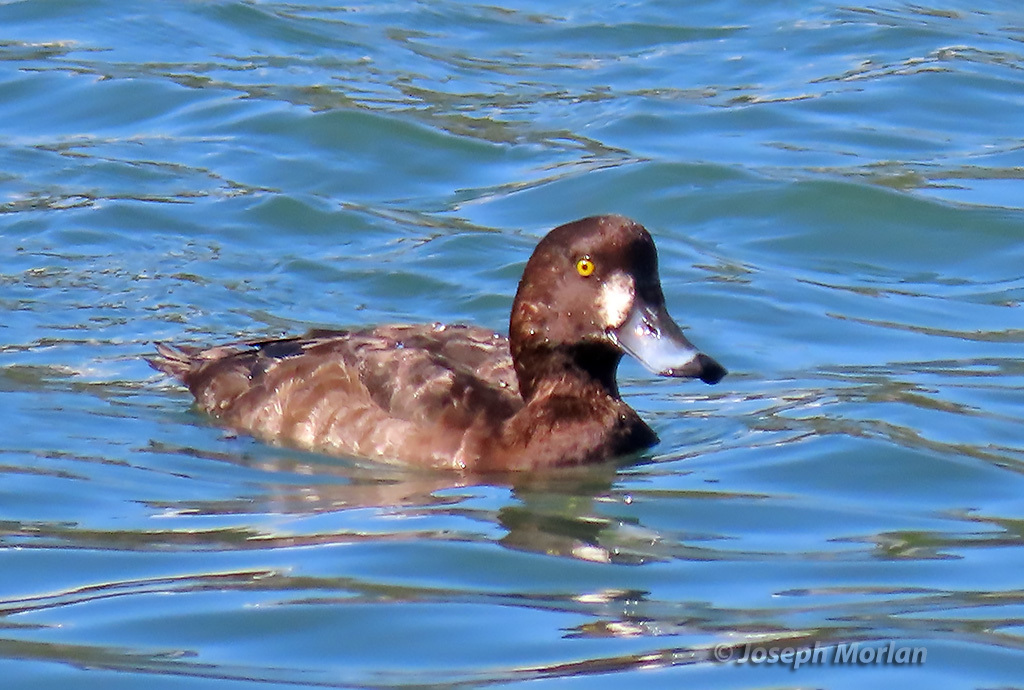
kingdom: Animalia
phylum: Chordata
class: Aves
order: Anseriformes
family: Anatidae
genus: Aythya
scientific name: Aythya marila
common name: Greater scaup
